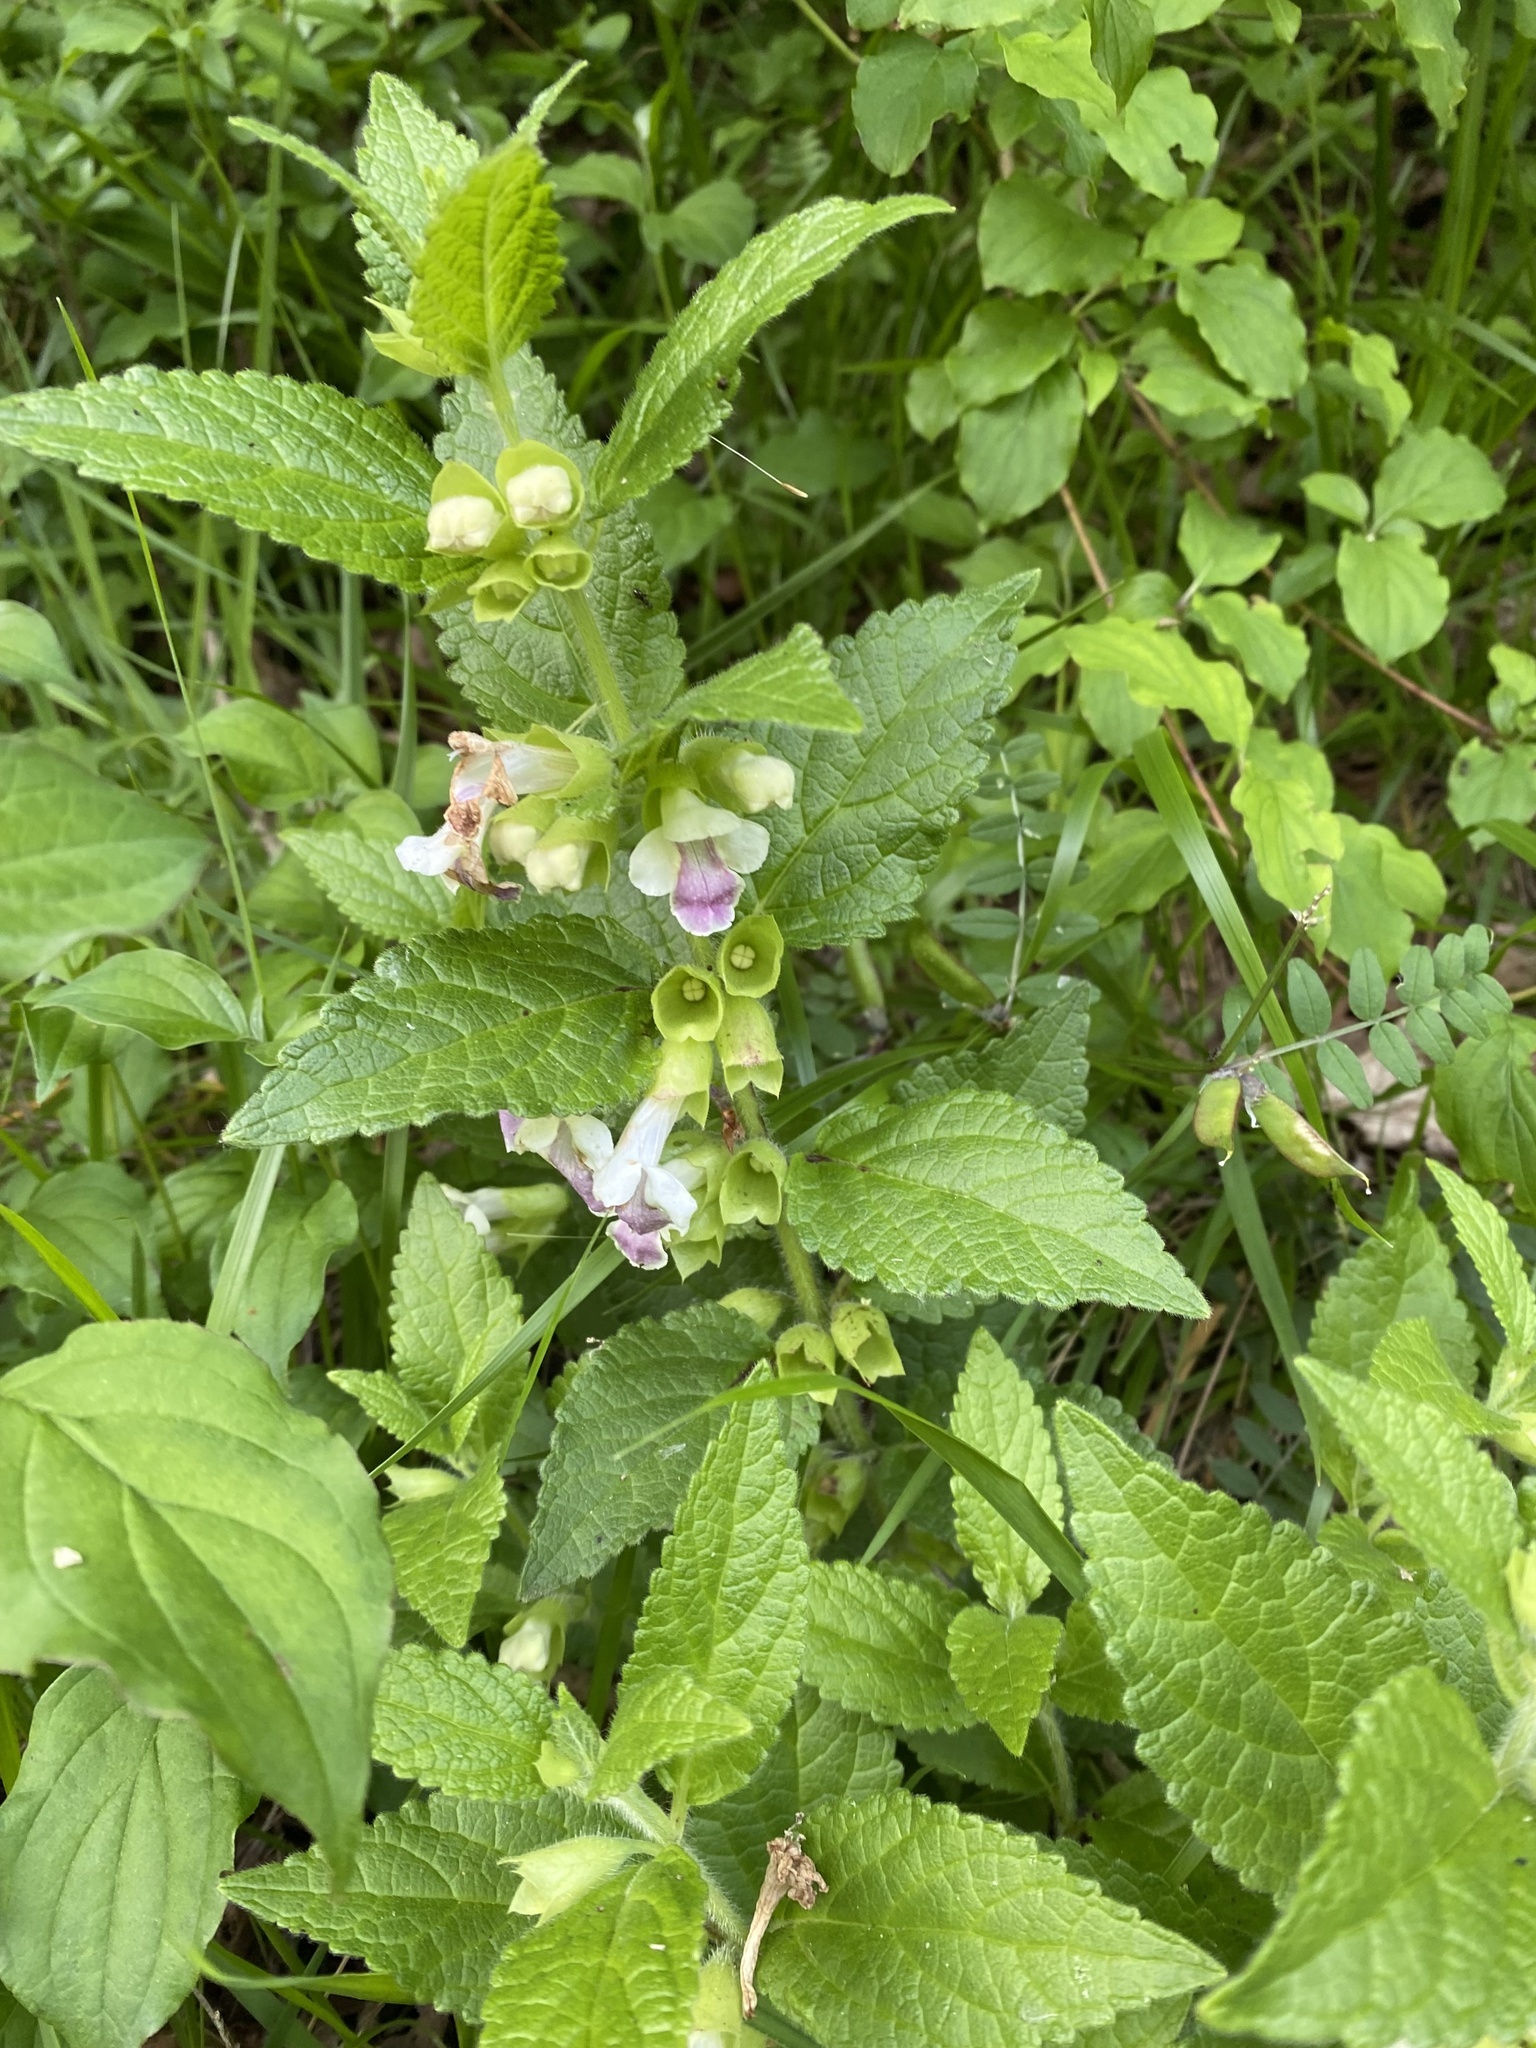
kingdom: Plantae
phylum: Tracheophyta
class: Magnoliopsida
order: Lamiales
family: Lamiaceae
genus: Melittis
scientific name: Melittis melissophyllum
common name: Bastard balm
